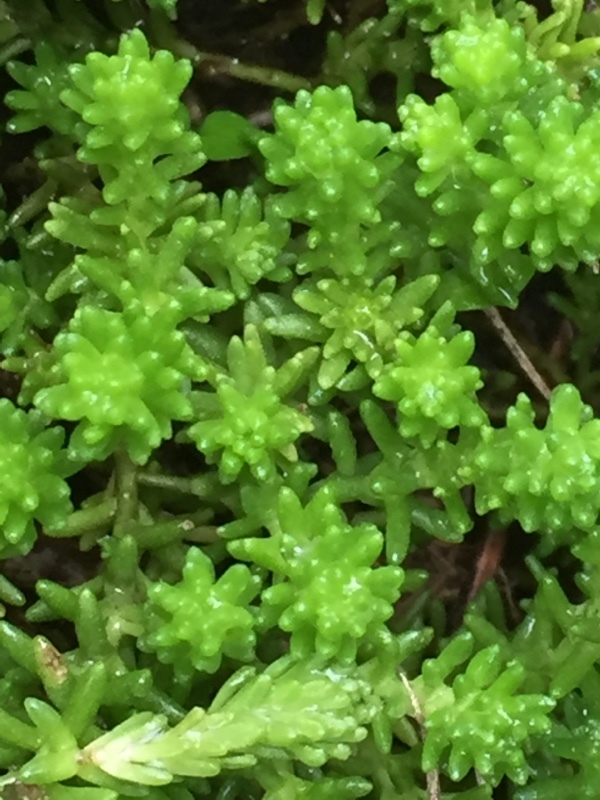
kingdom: Plantae
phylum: Tracheophyta
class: Magnoliopsida
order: Saxifragales
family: Crassulaceae
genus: Sedum
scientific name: Sedum sexangulare
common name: Tasteless stonecrop
